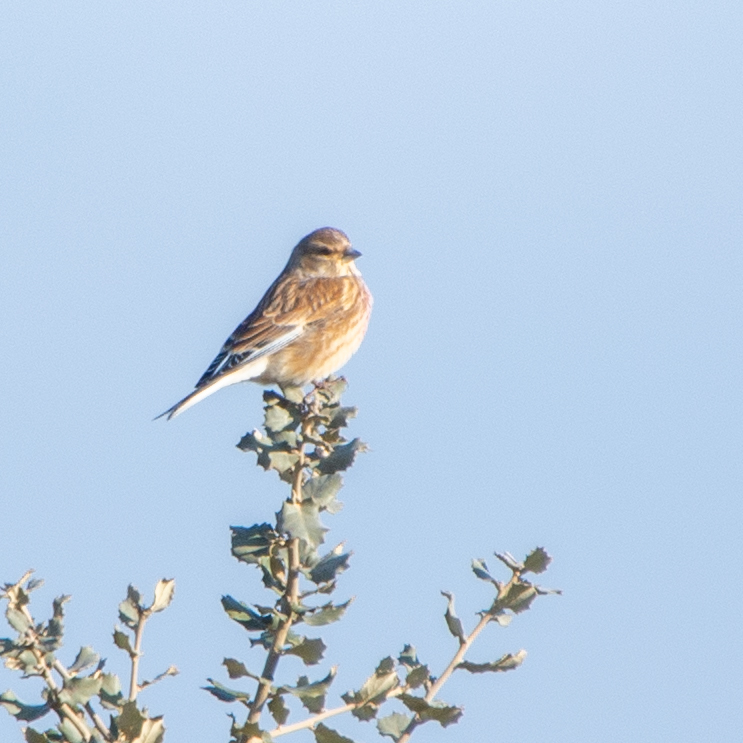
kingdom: Animalia
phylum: Chordata
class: Aves
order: Passeriformes
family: Fringillidae
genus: Linaria
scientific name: Linaria cannabina
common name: Common linnet
